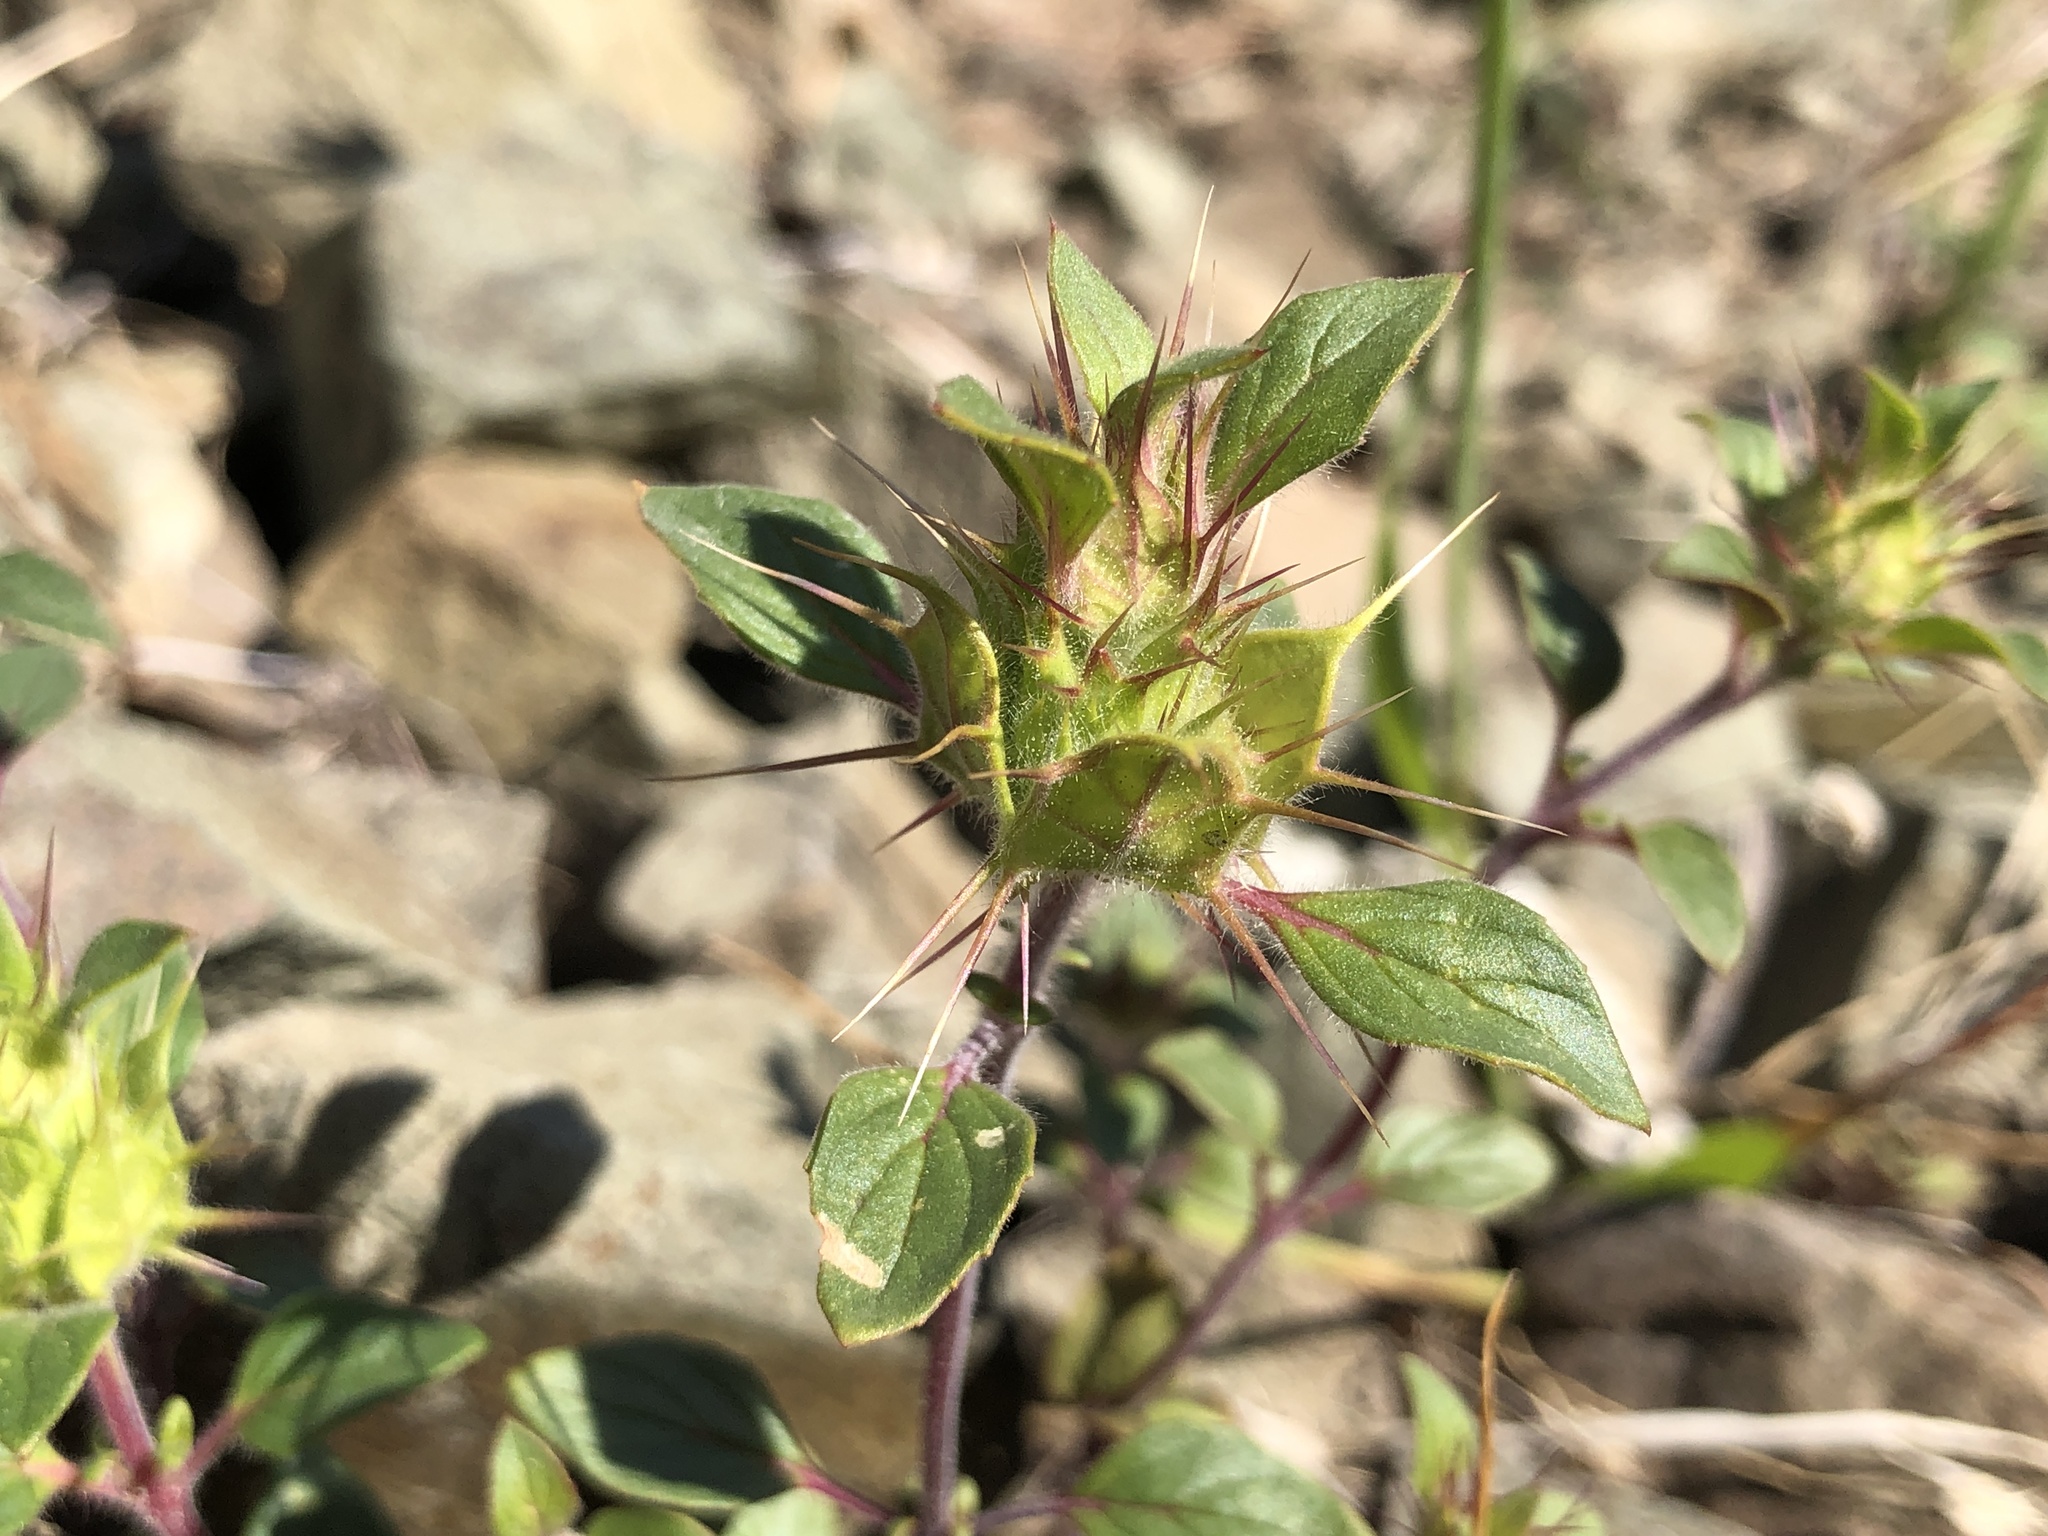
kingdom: Plantae
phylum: Tracheophyta
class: Magnoliopsida
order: Lamiales
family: Lamiaceae
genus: Acanthomintha
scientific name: Acanthomintha lanceolata
